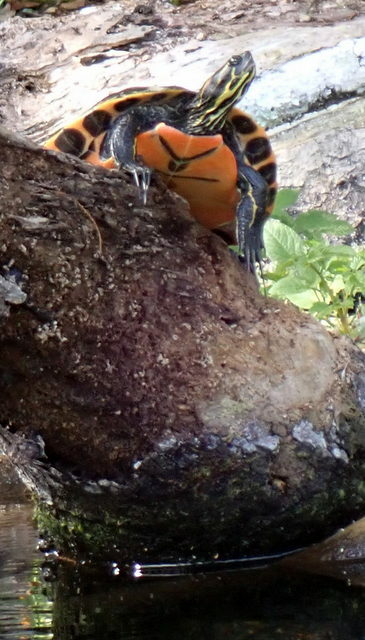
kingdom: Animalia
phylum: Chordata
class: Testudines
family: Emydidae
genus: Pseudemys
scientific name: Pseudemys concinna
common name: Eastern river cooter
